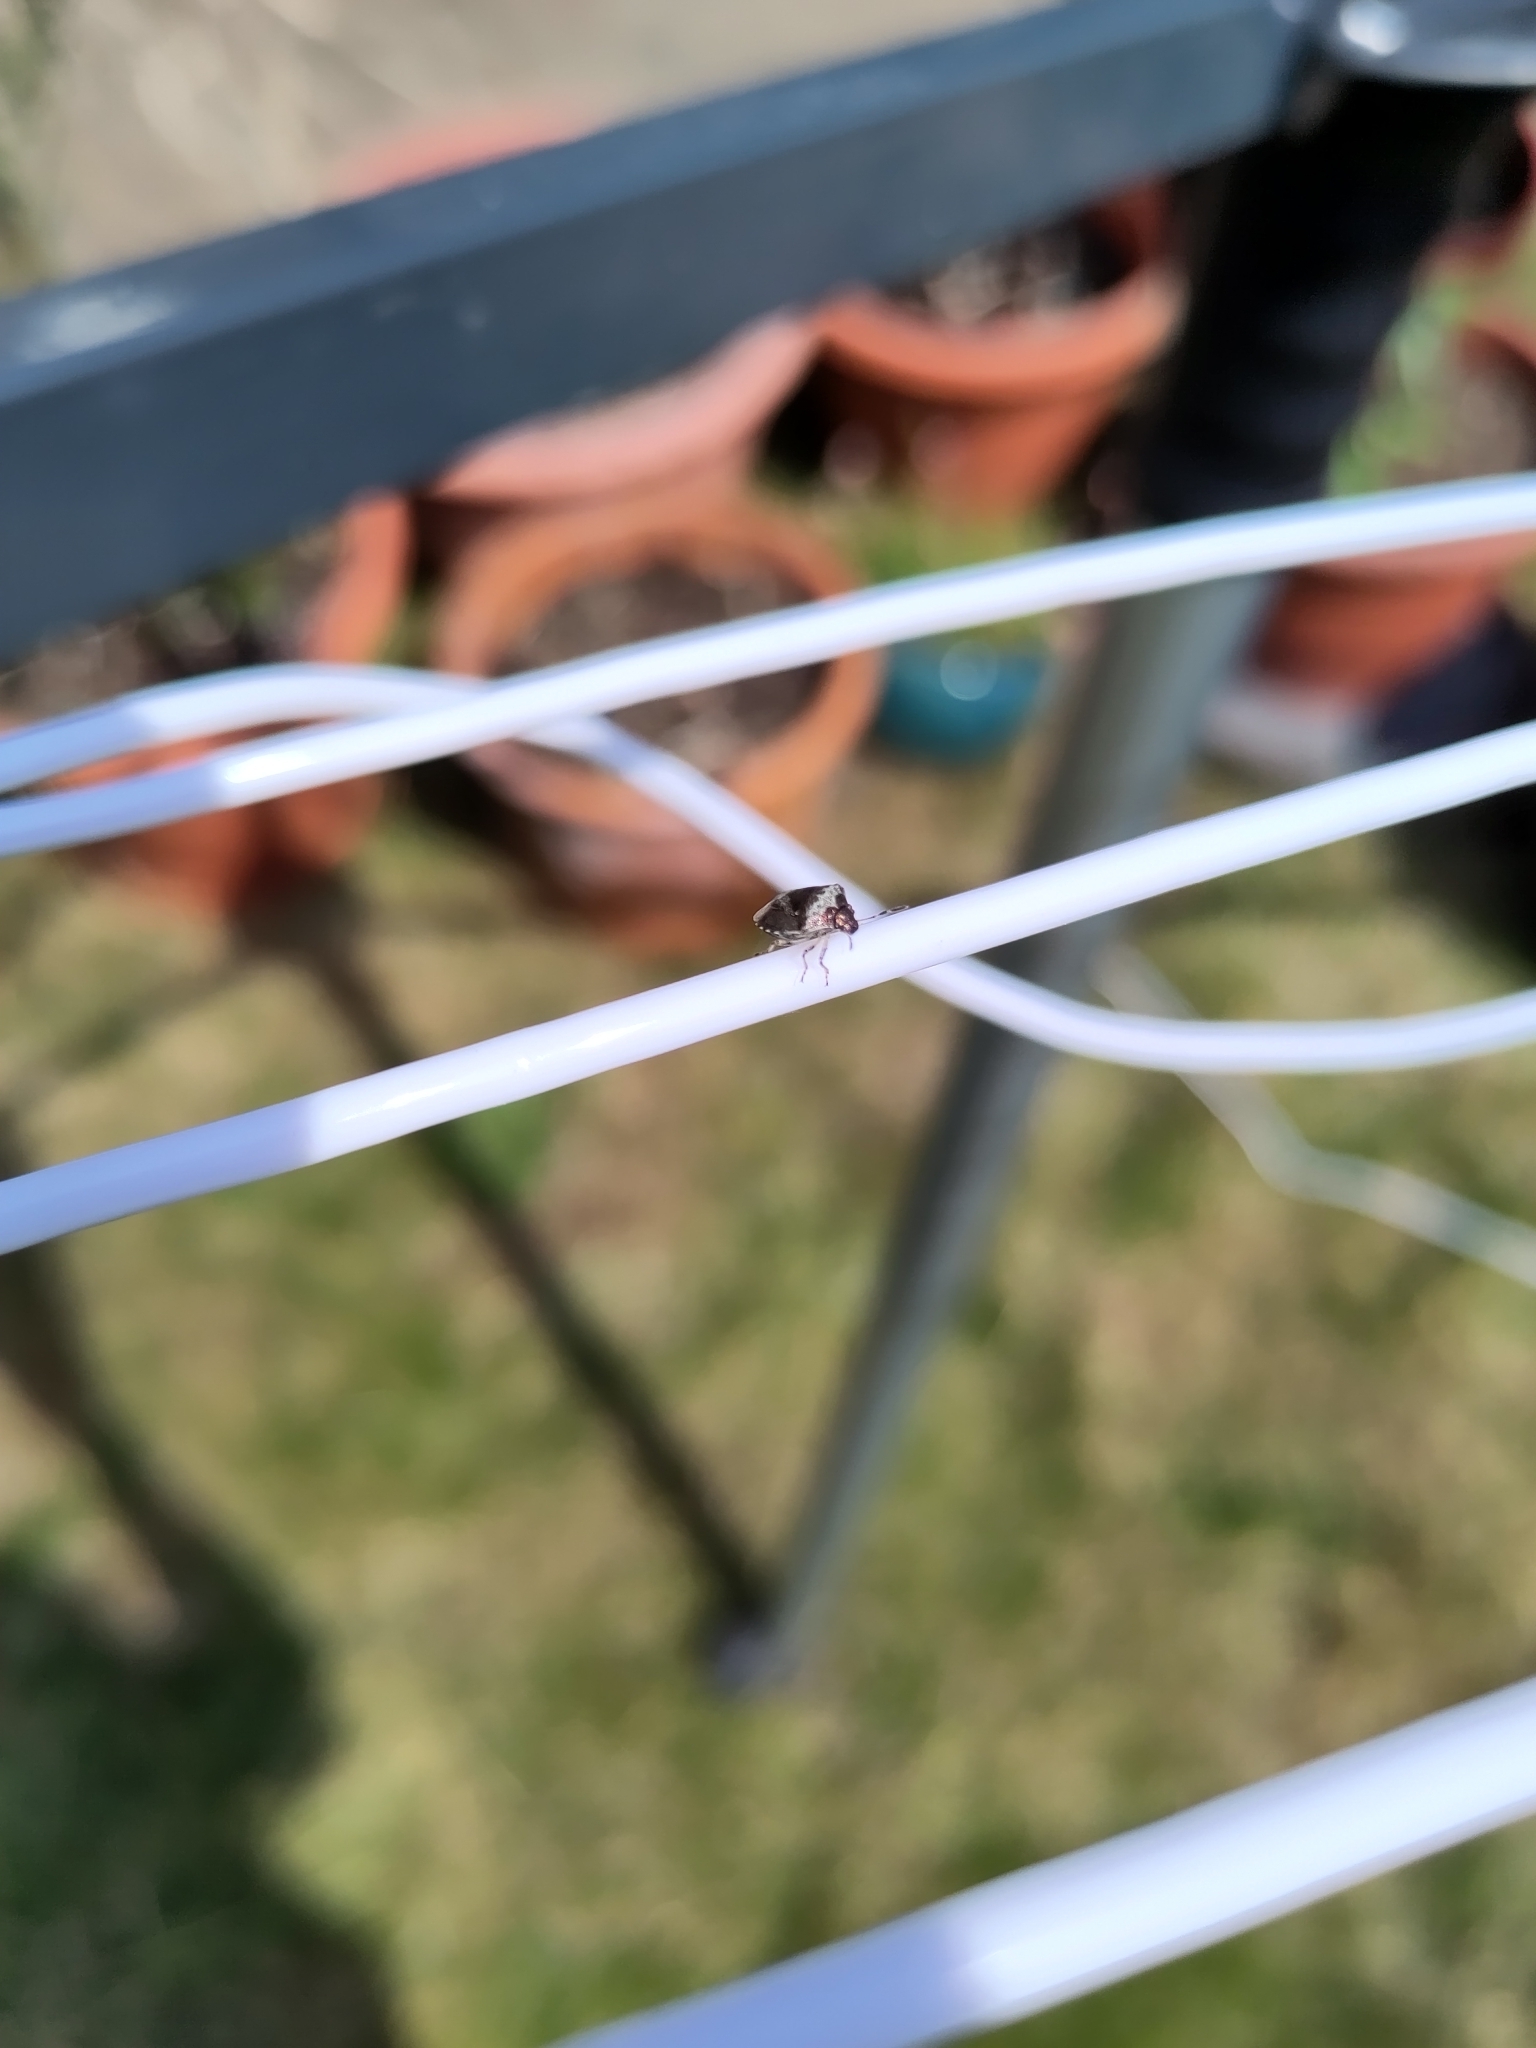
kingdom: Animalia
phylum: Arthropoda
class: Insecta
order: Hemiptera
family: Pentatomidae
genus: Eysarcoris
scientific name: Eysarcoris venustissimus
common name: Woundwort shieldbug
